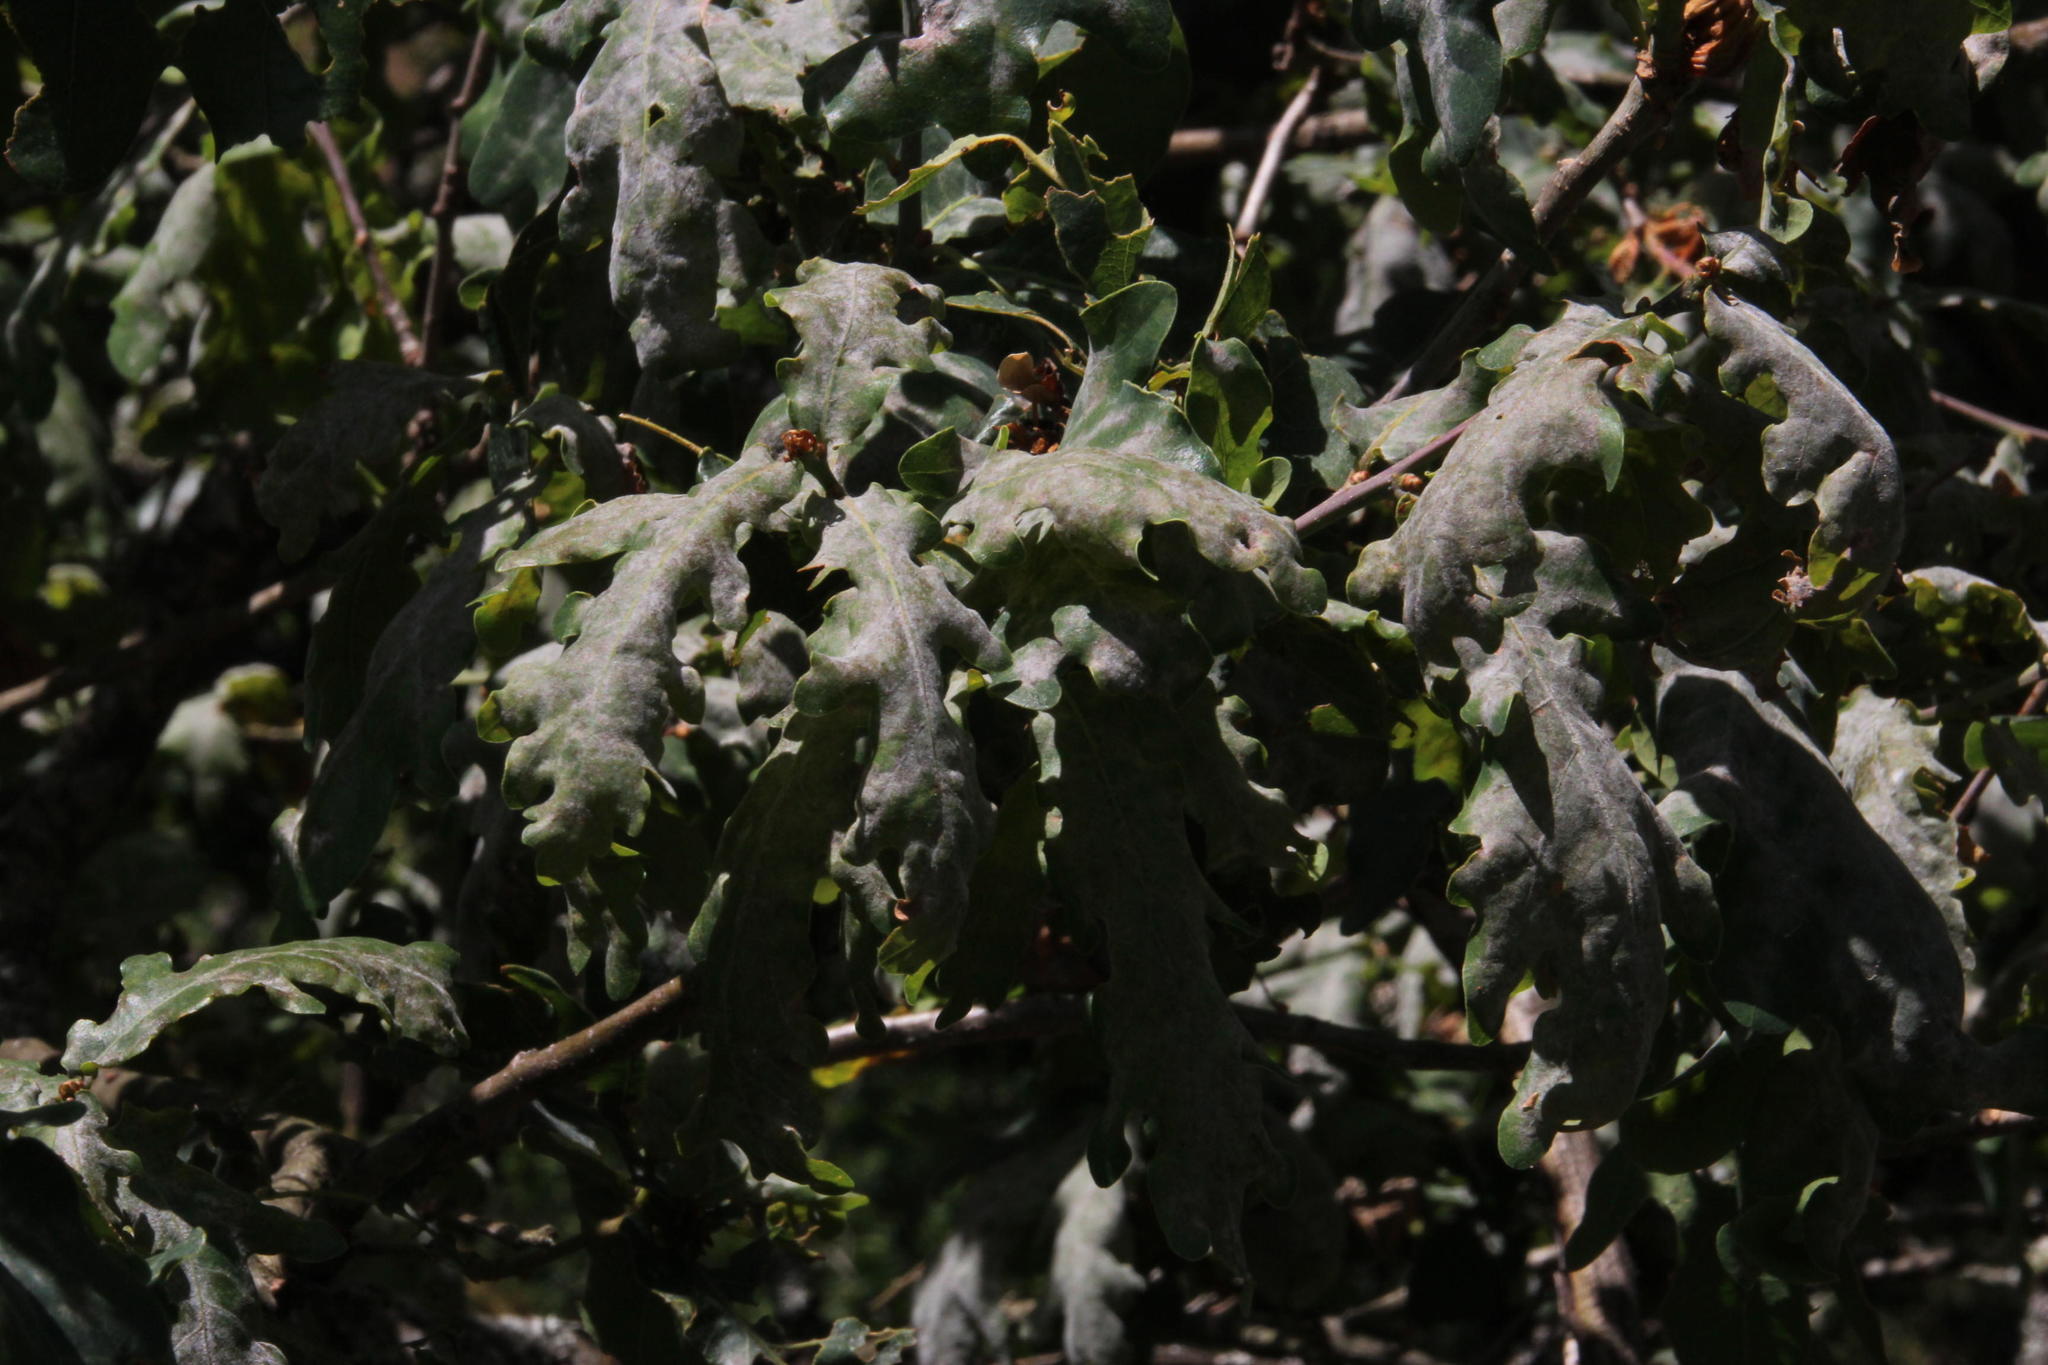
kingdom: Plantae
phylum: Tracheophyta
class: Magnoliopsida
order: Fagales
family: Fagaceae
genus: Quercus
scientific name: Quercus pyrenaica
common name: Pyrenean oak
